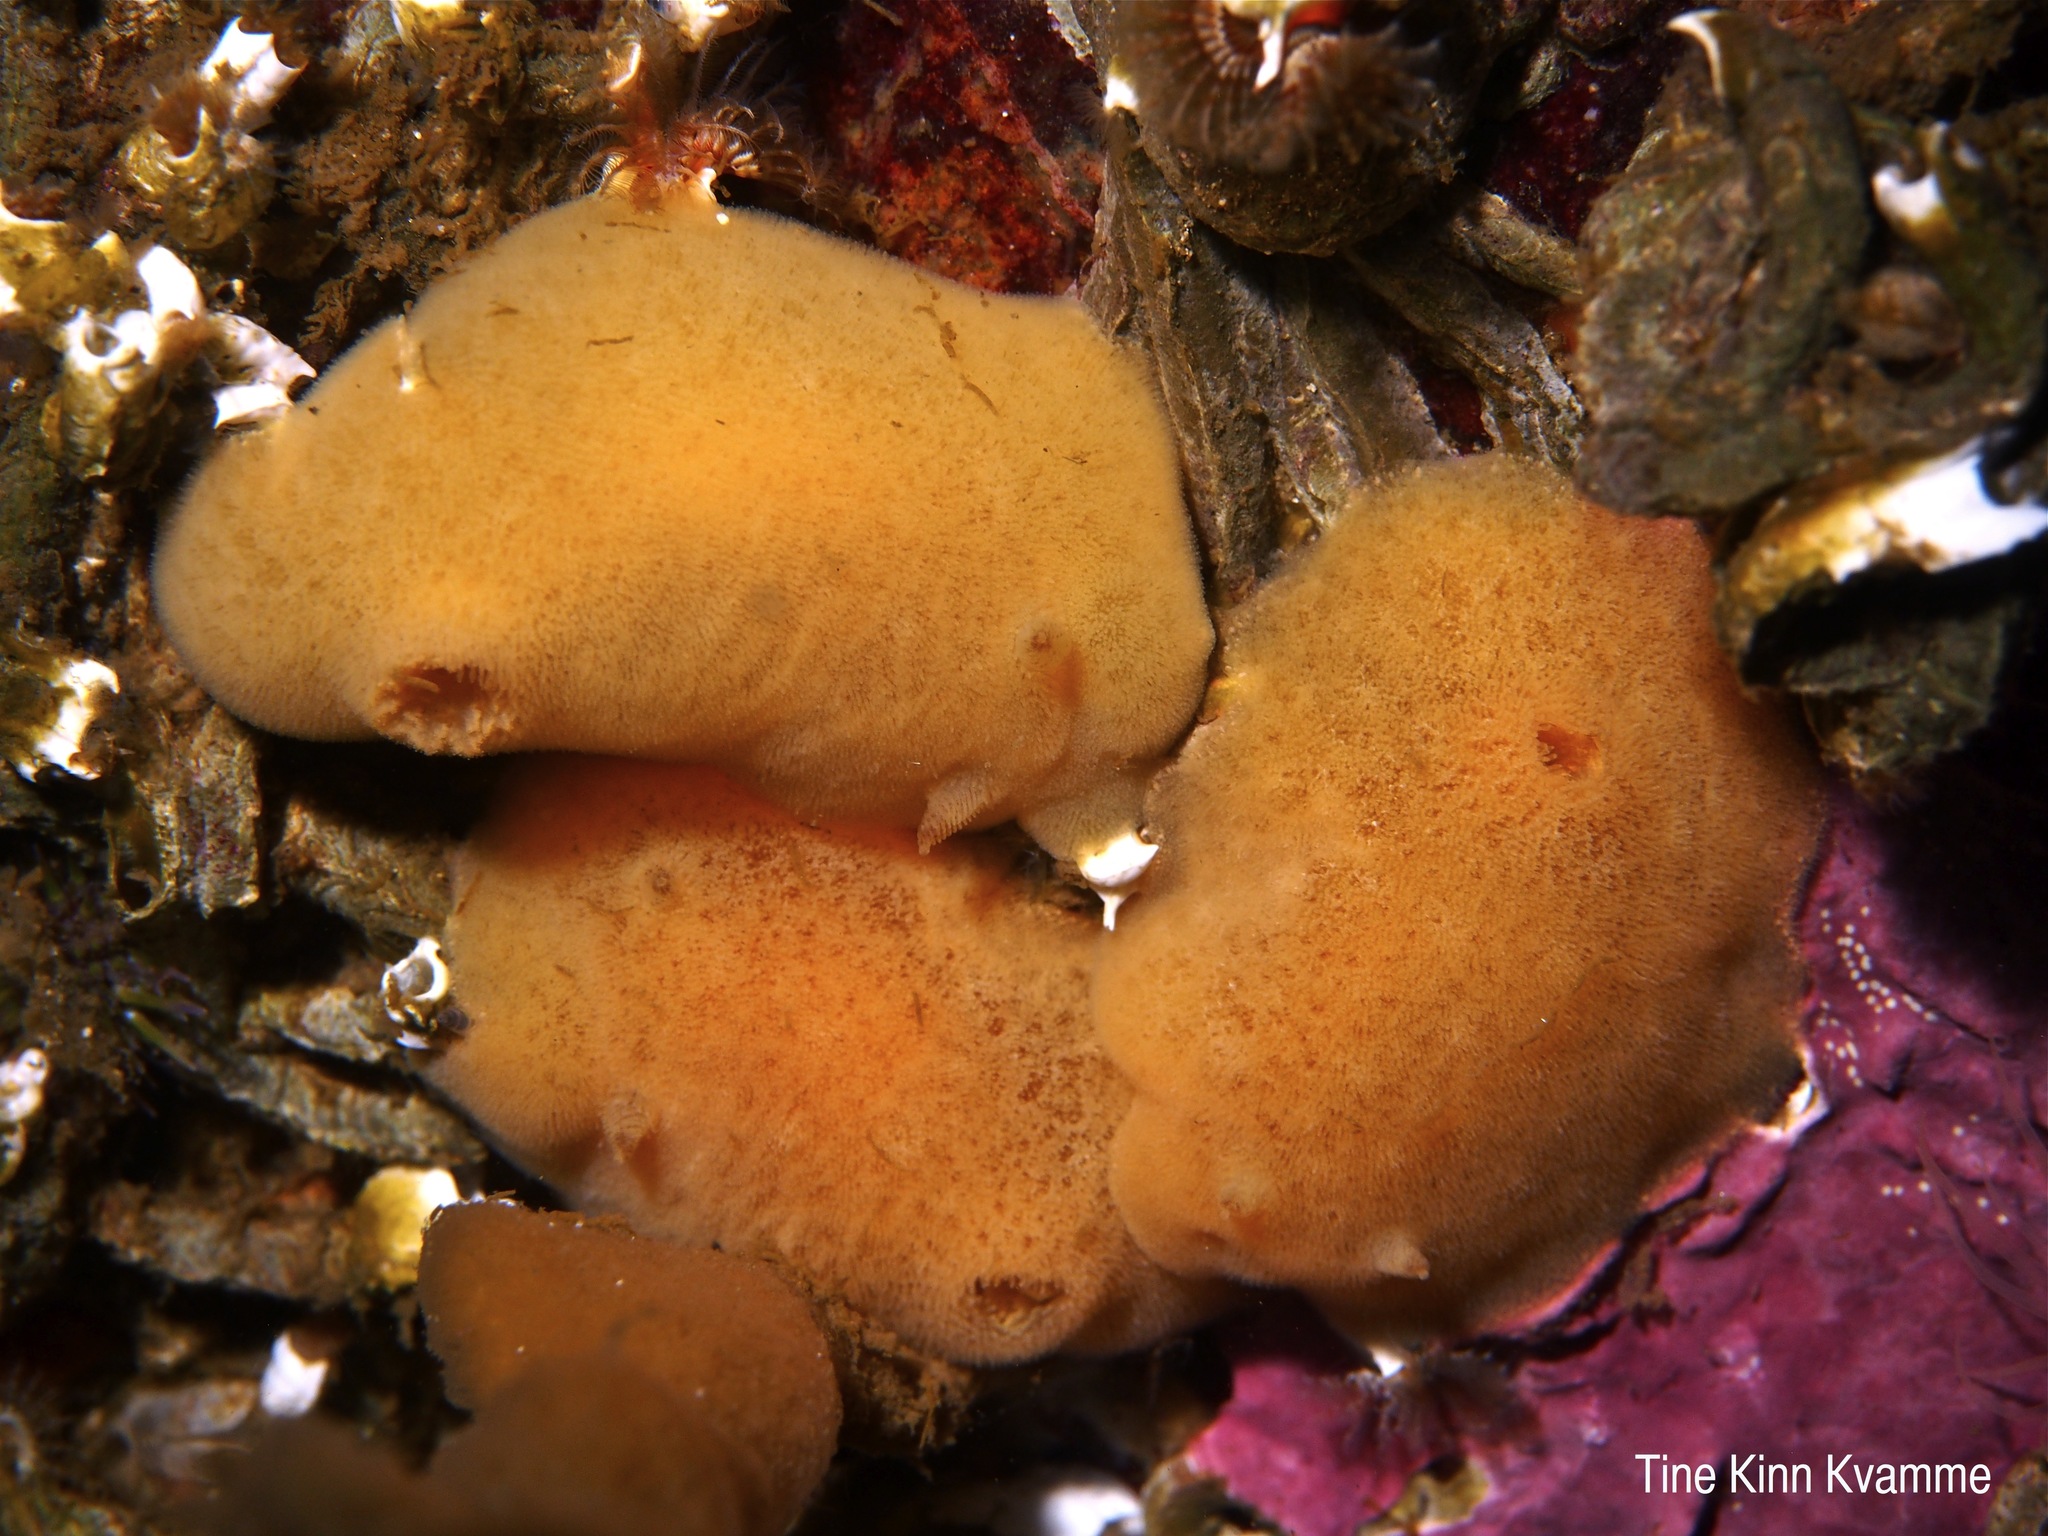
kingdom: Animalia
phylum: Mollusca
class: Gastropoda
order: Nudibranchia
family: Discodorididae
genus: Jorunna
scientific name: Jorunna tomentosa
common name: Grey sea slug
